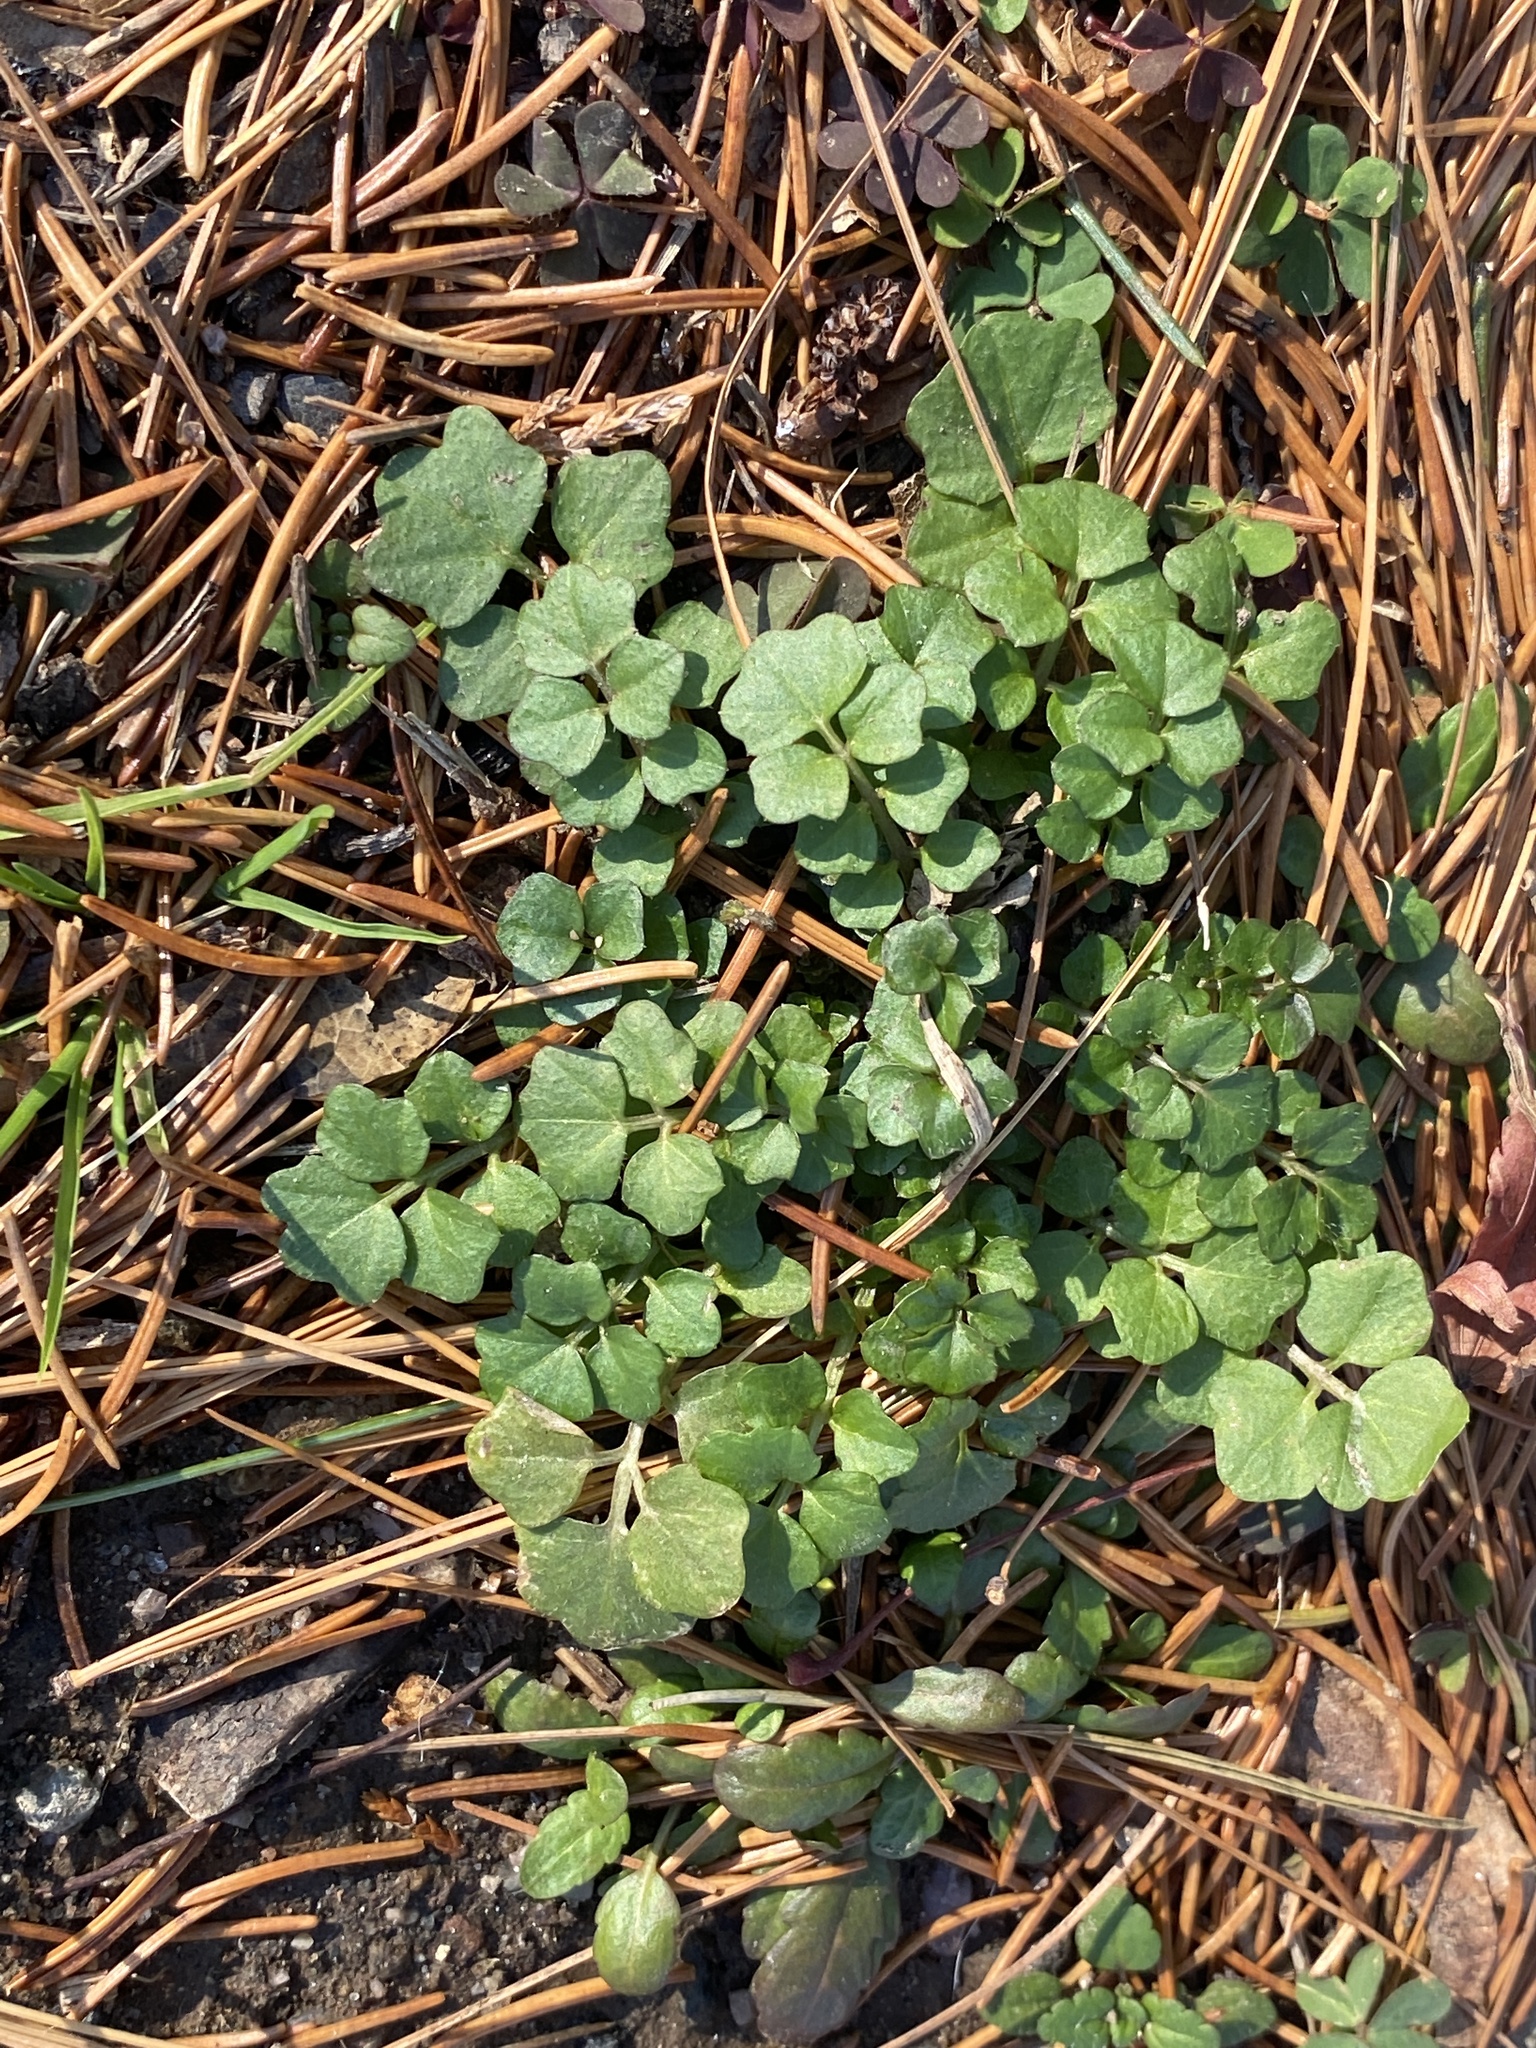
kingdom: Plantae
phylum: Tracheophyta
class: Magnoliopsida
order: Brassicales
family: Brassicaceae
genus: Cardamine
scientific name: Cardamine hirsuta
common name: Hairy bittercress
